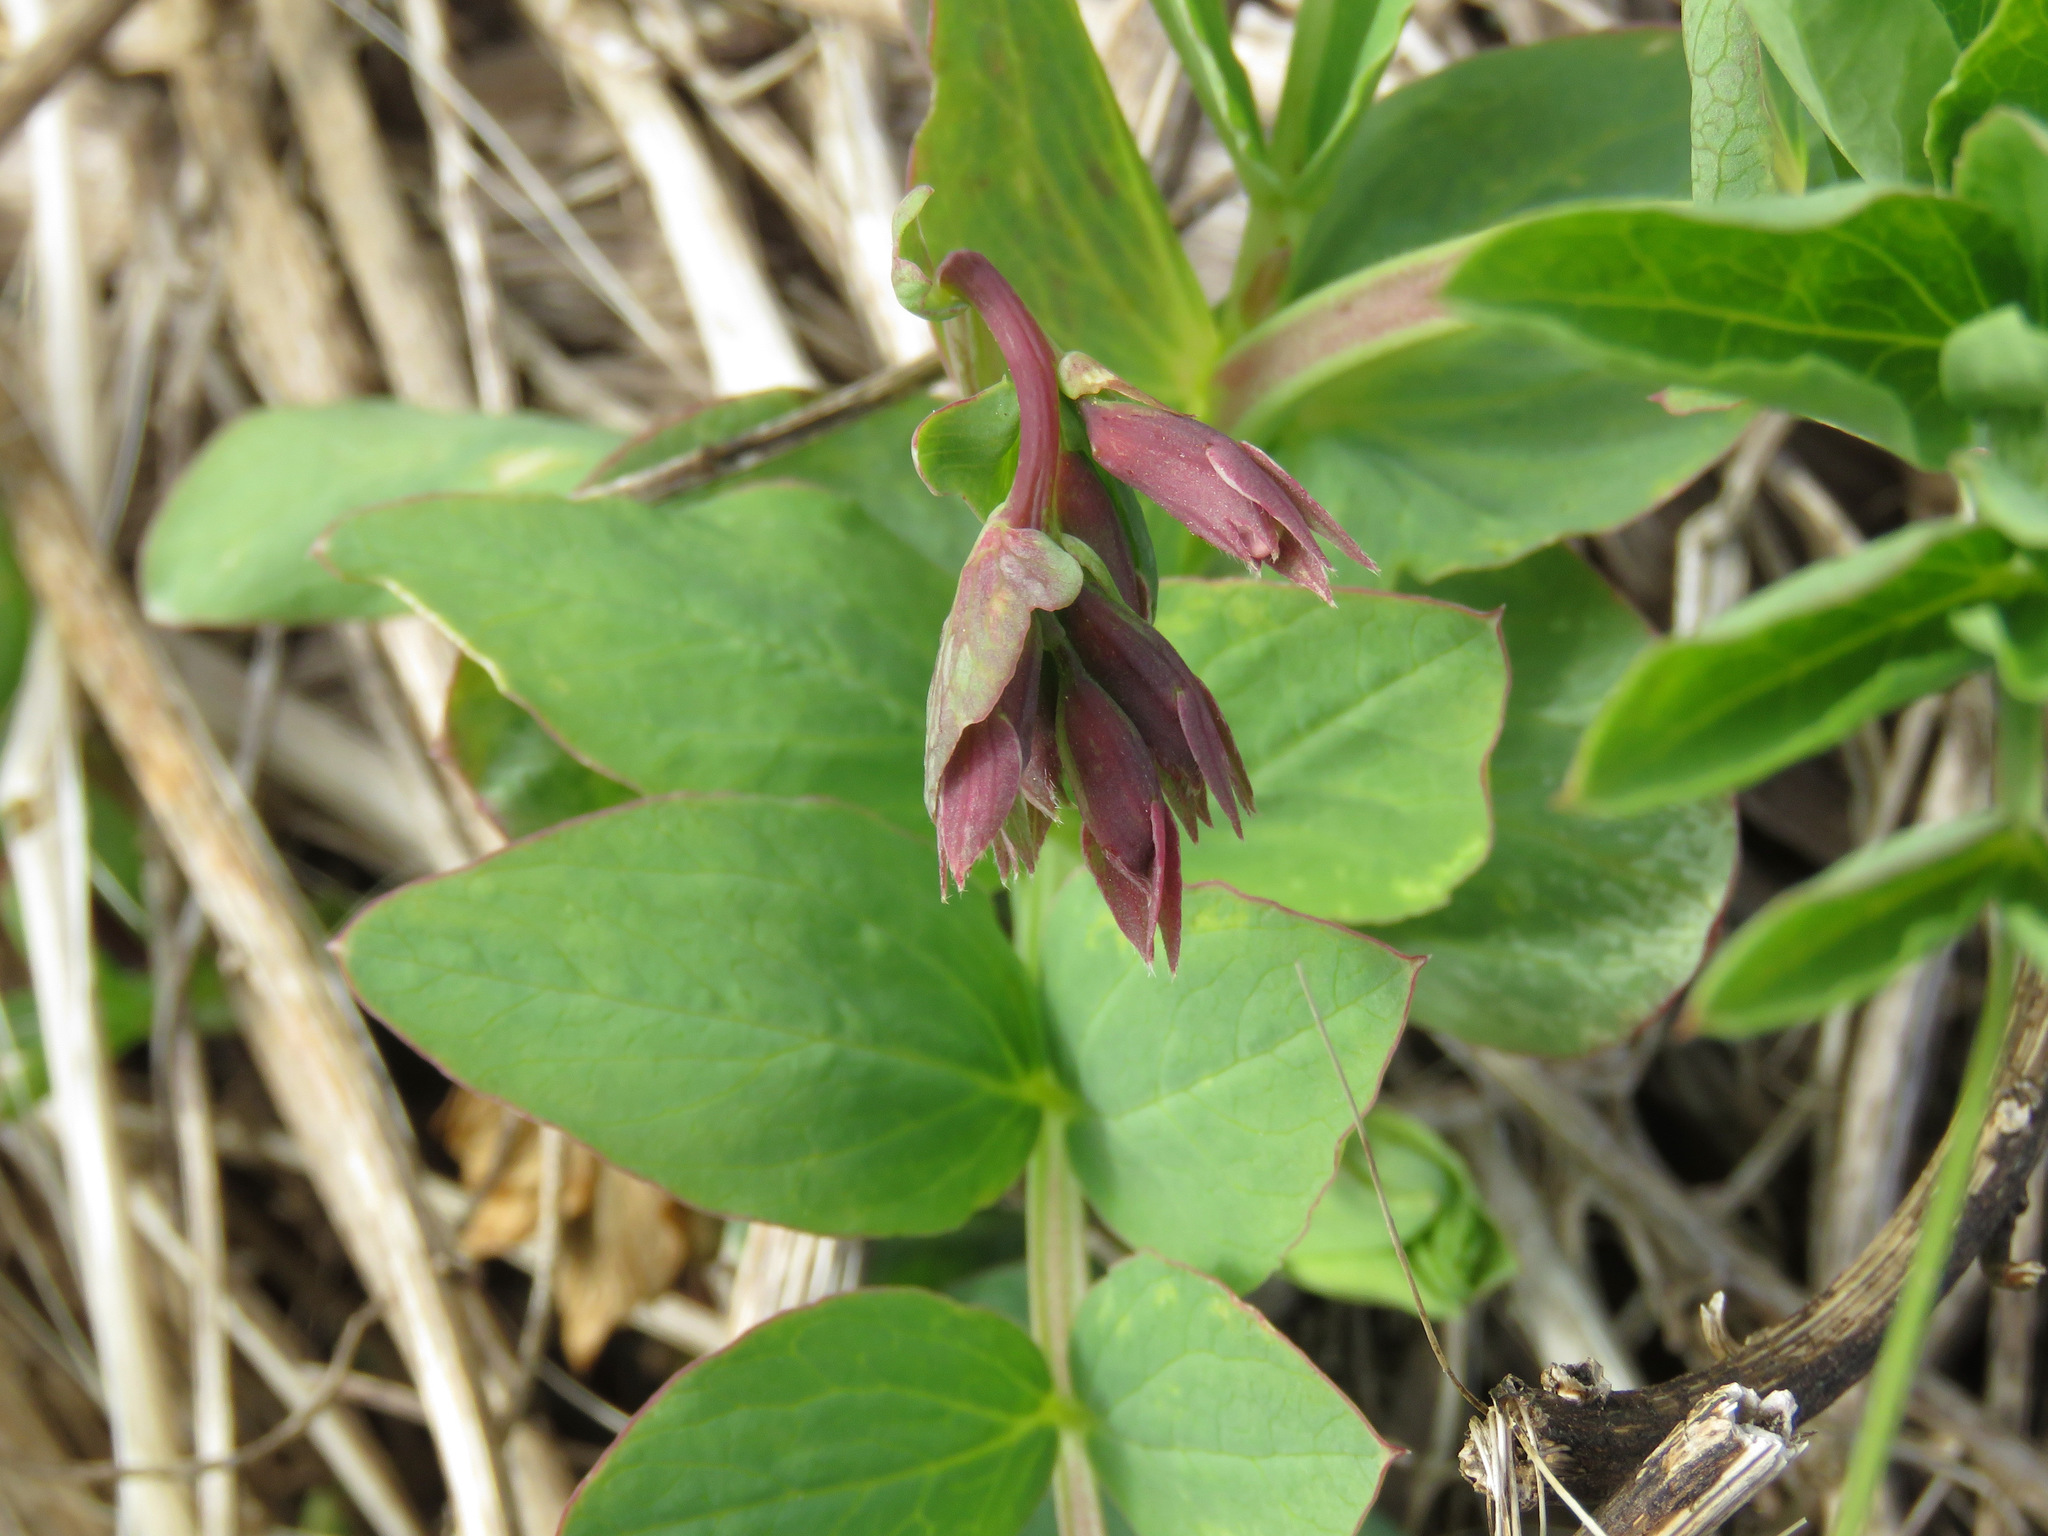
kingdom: Plantae
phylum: Tracheophyta
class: Magnoliopsida
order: Fabales
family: Fabaceae
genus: Lathyrus
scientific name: Lathyrus japonicus
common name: Sea pea
